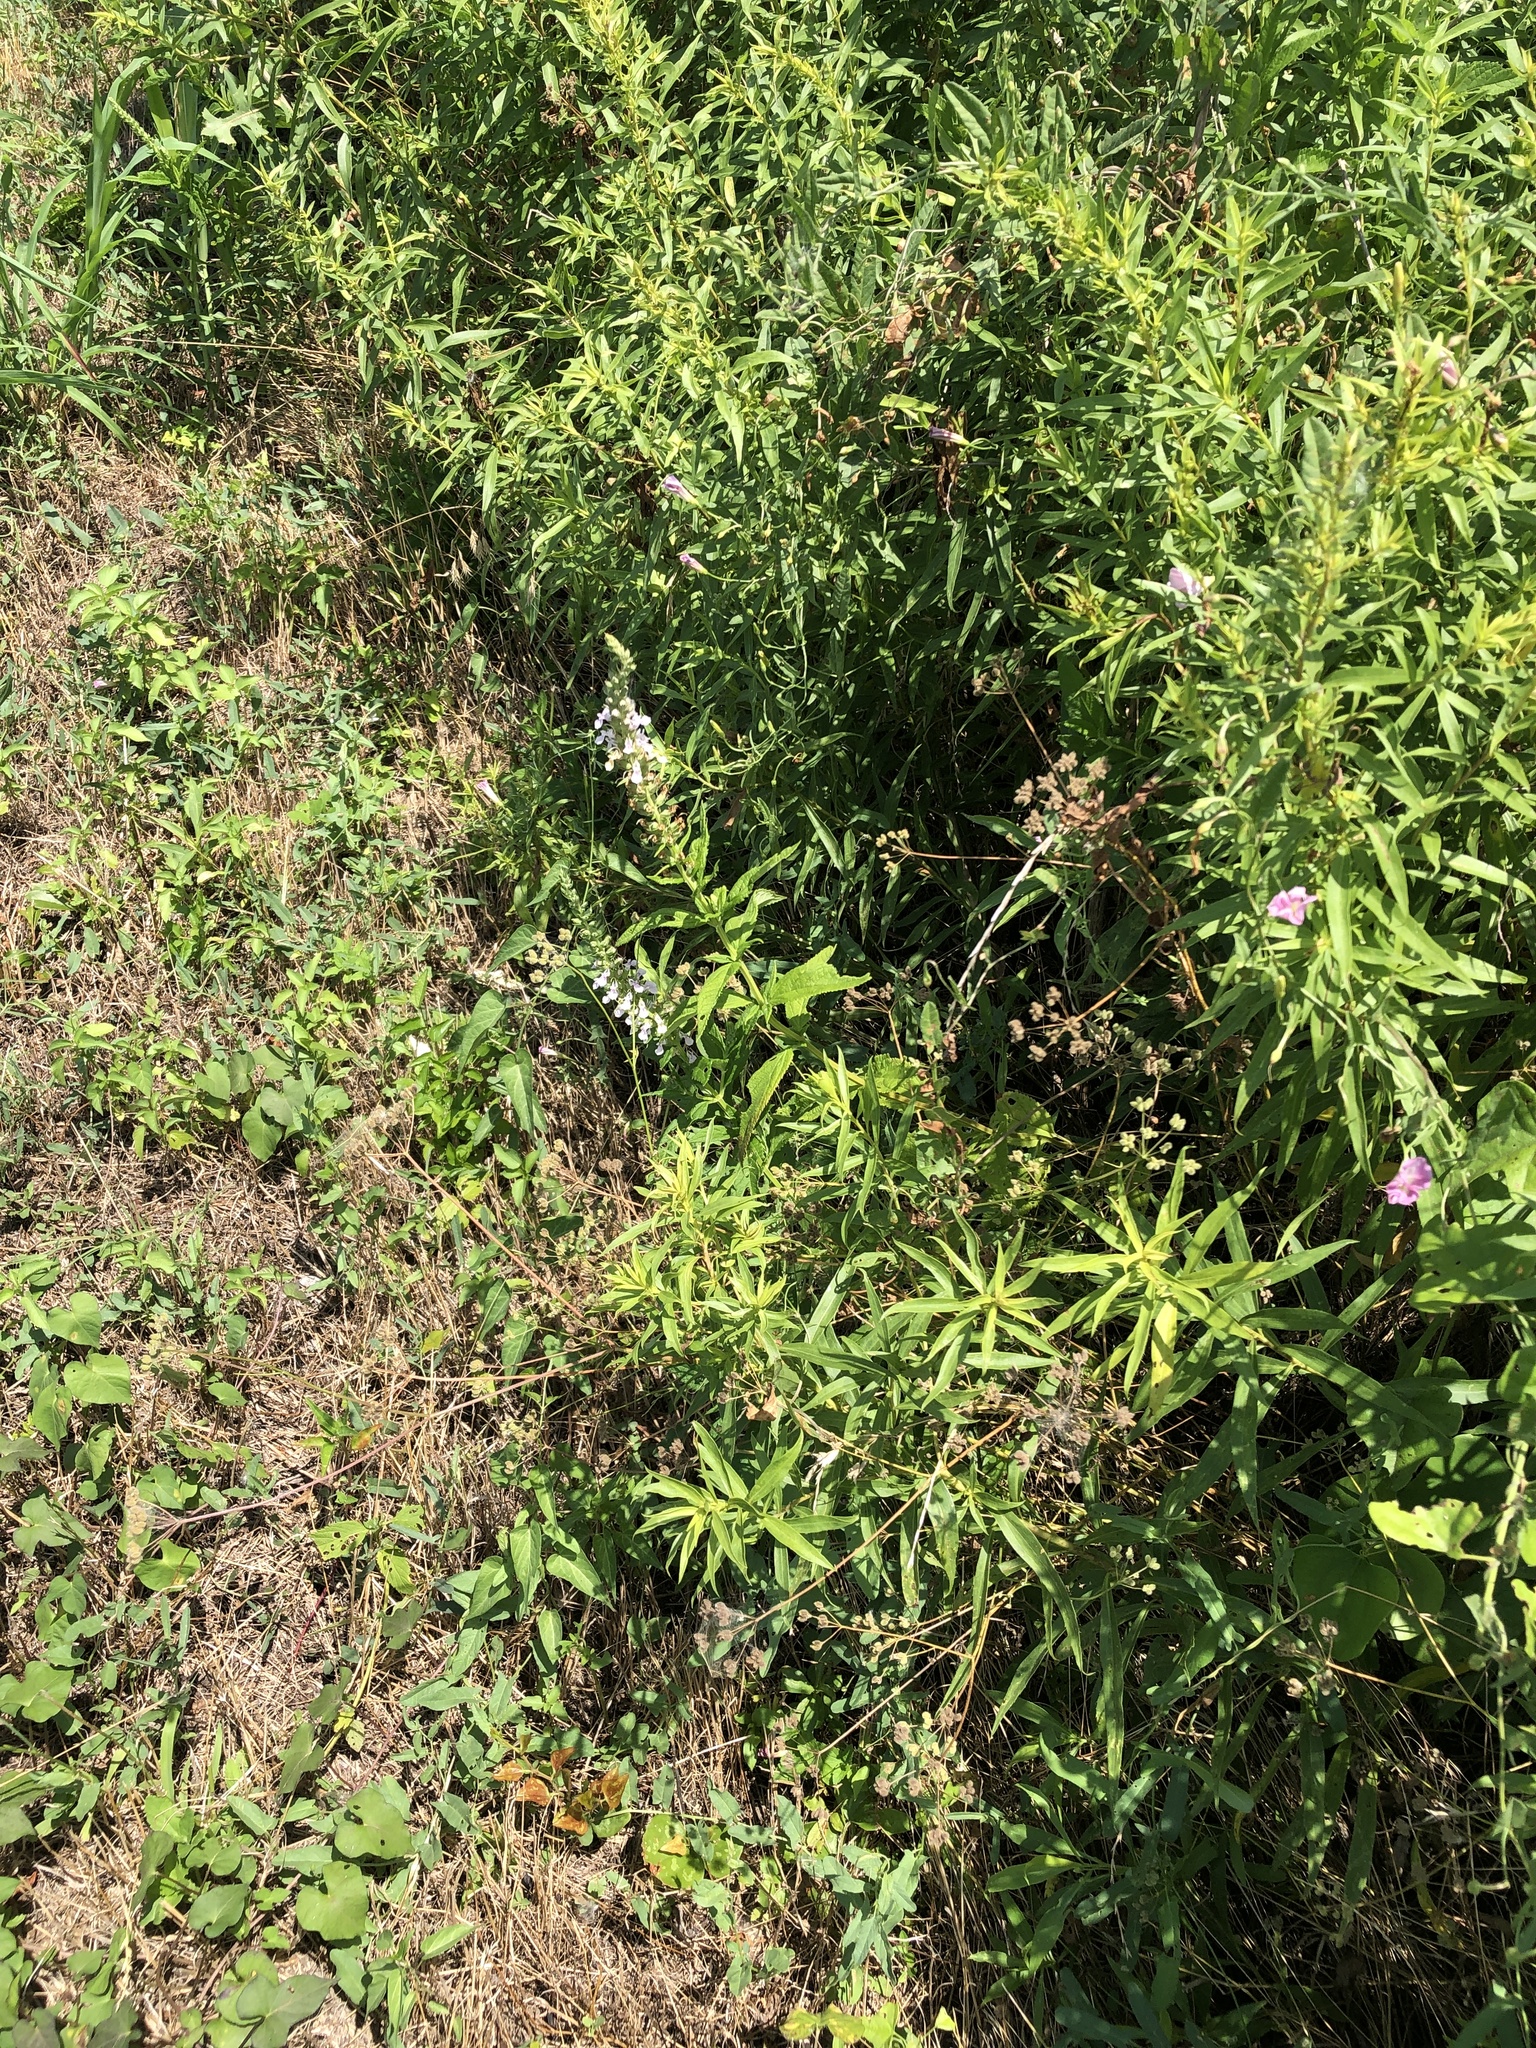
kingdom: Plantae
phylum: Tracheophyta
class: Magnoliopsida
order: Lamiales
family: Lamiaceae
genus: Teucrium
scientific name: Teucrium canadense
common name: American germander
